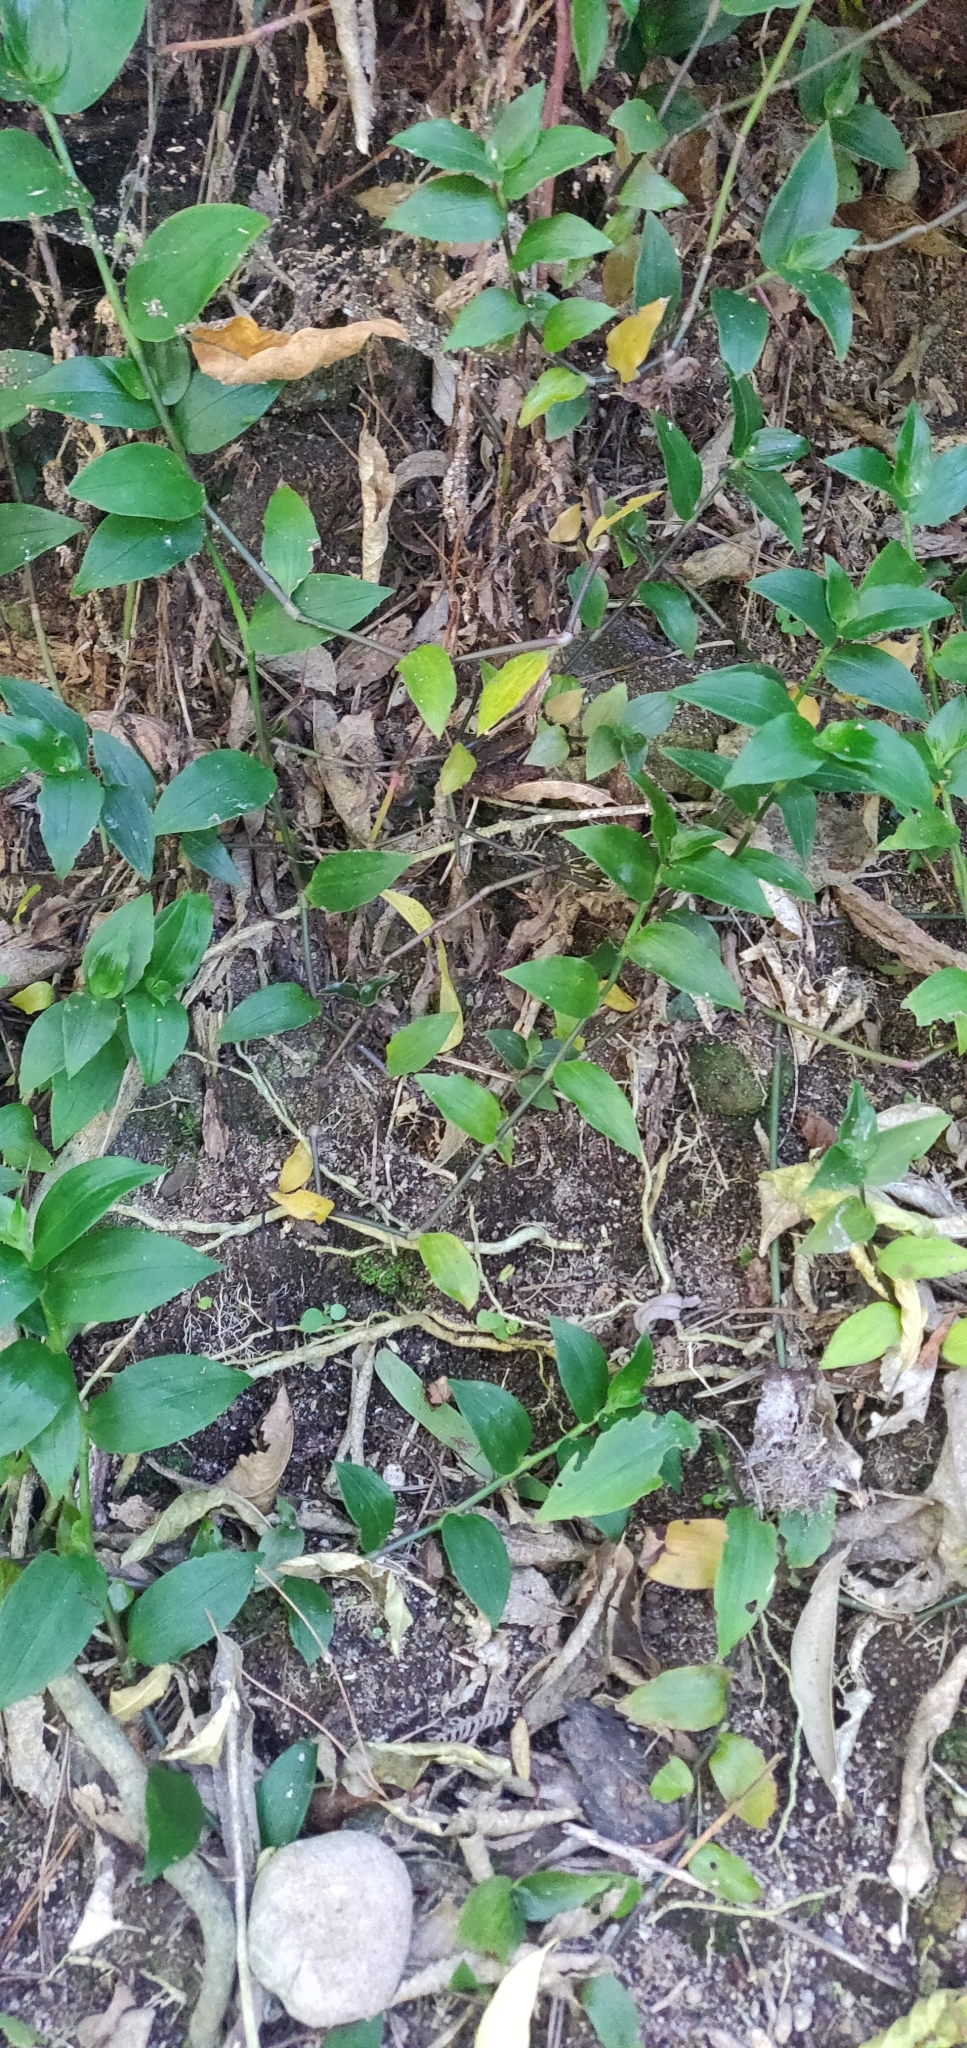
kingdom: Plantae
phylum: Tracheophyta
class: Liliopsida
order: Commelinales
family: Commelinaceae
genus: Tradescantia
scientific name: Tradescantia fluminensis
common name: Wandering-jew
